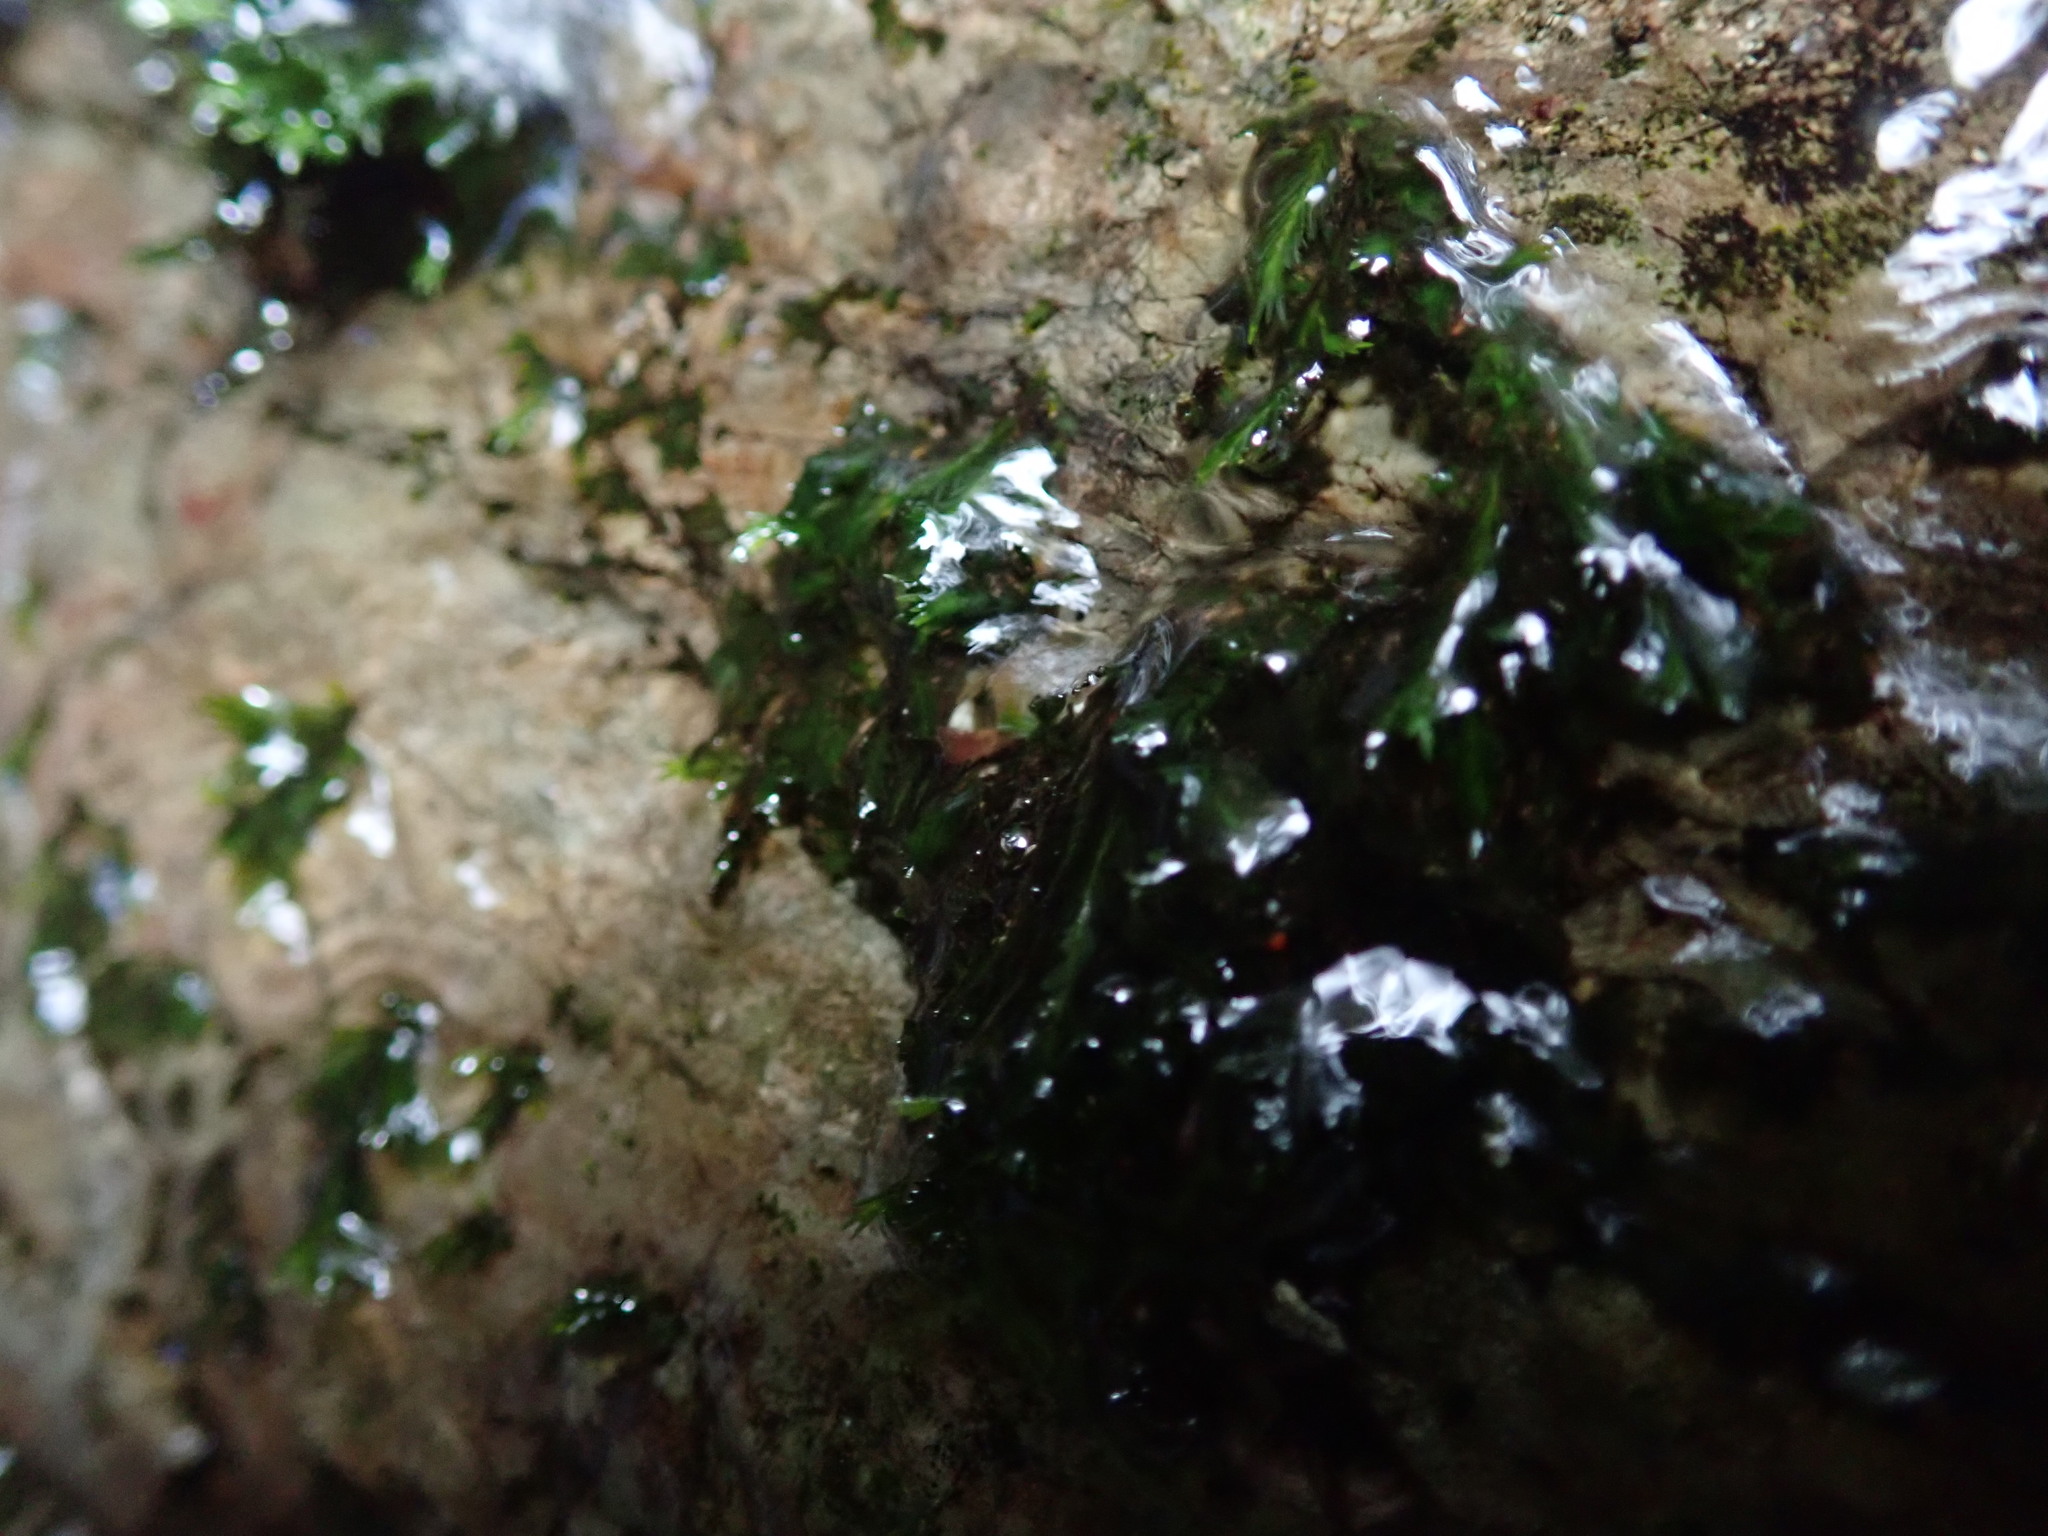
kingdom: Plantae
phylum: Bryophyta
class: Bryopsida
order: Dicranales
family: Fissidentaceae
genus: Fissidens
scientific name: Fissidens grandifrons
